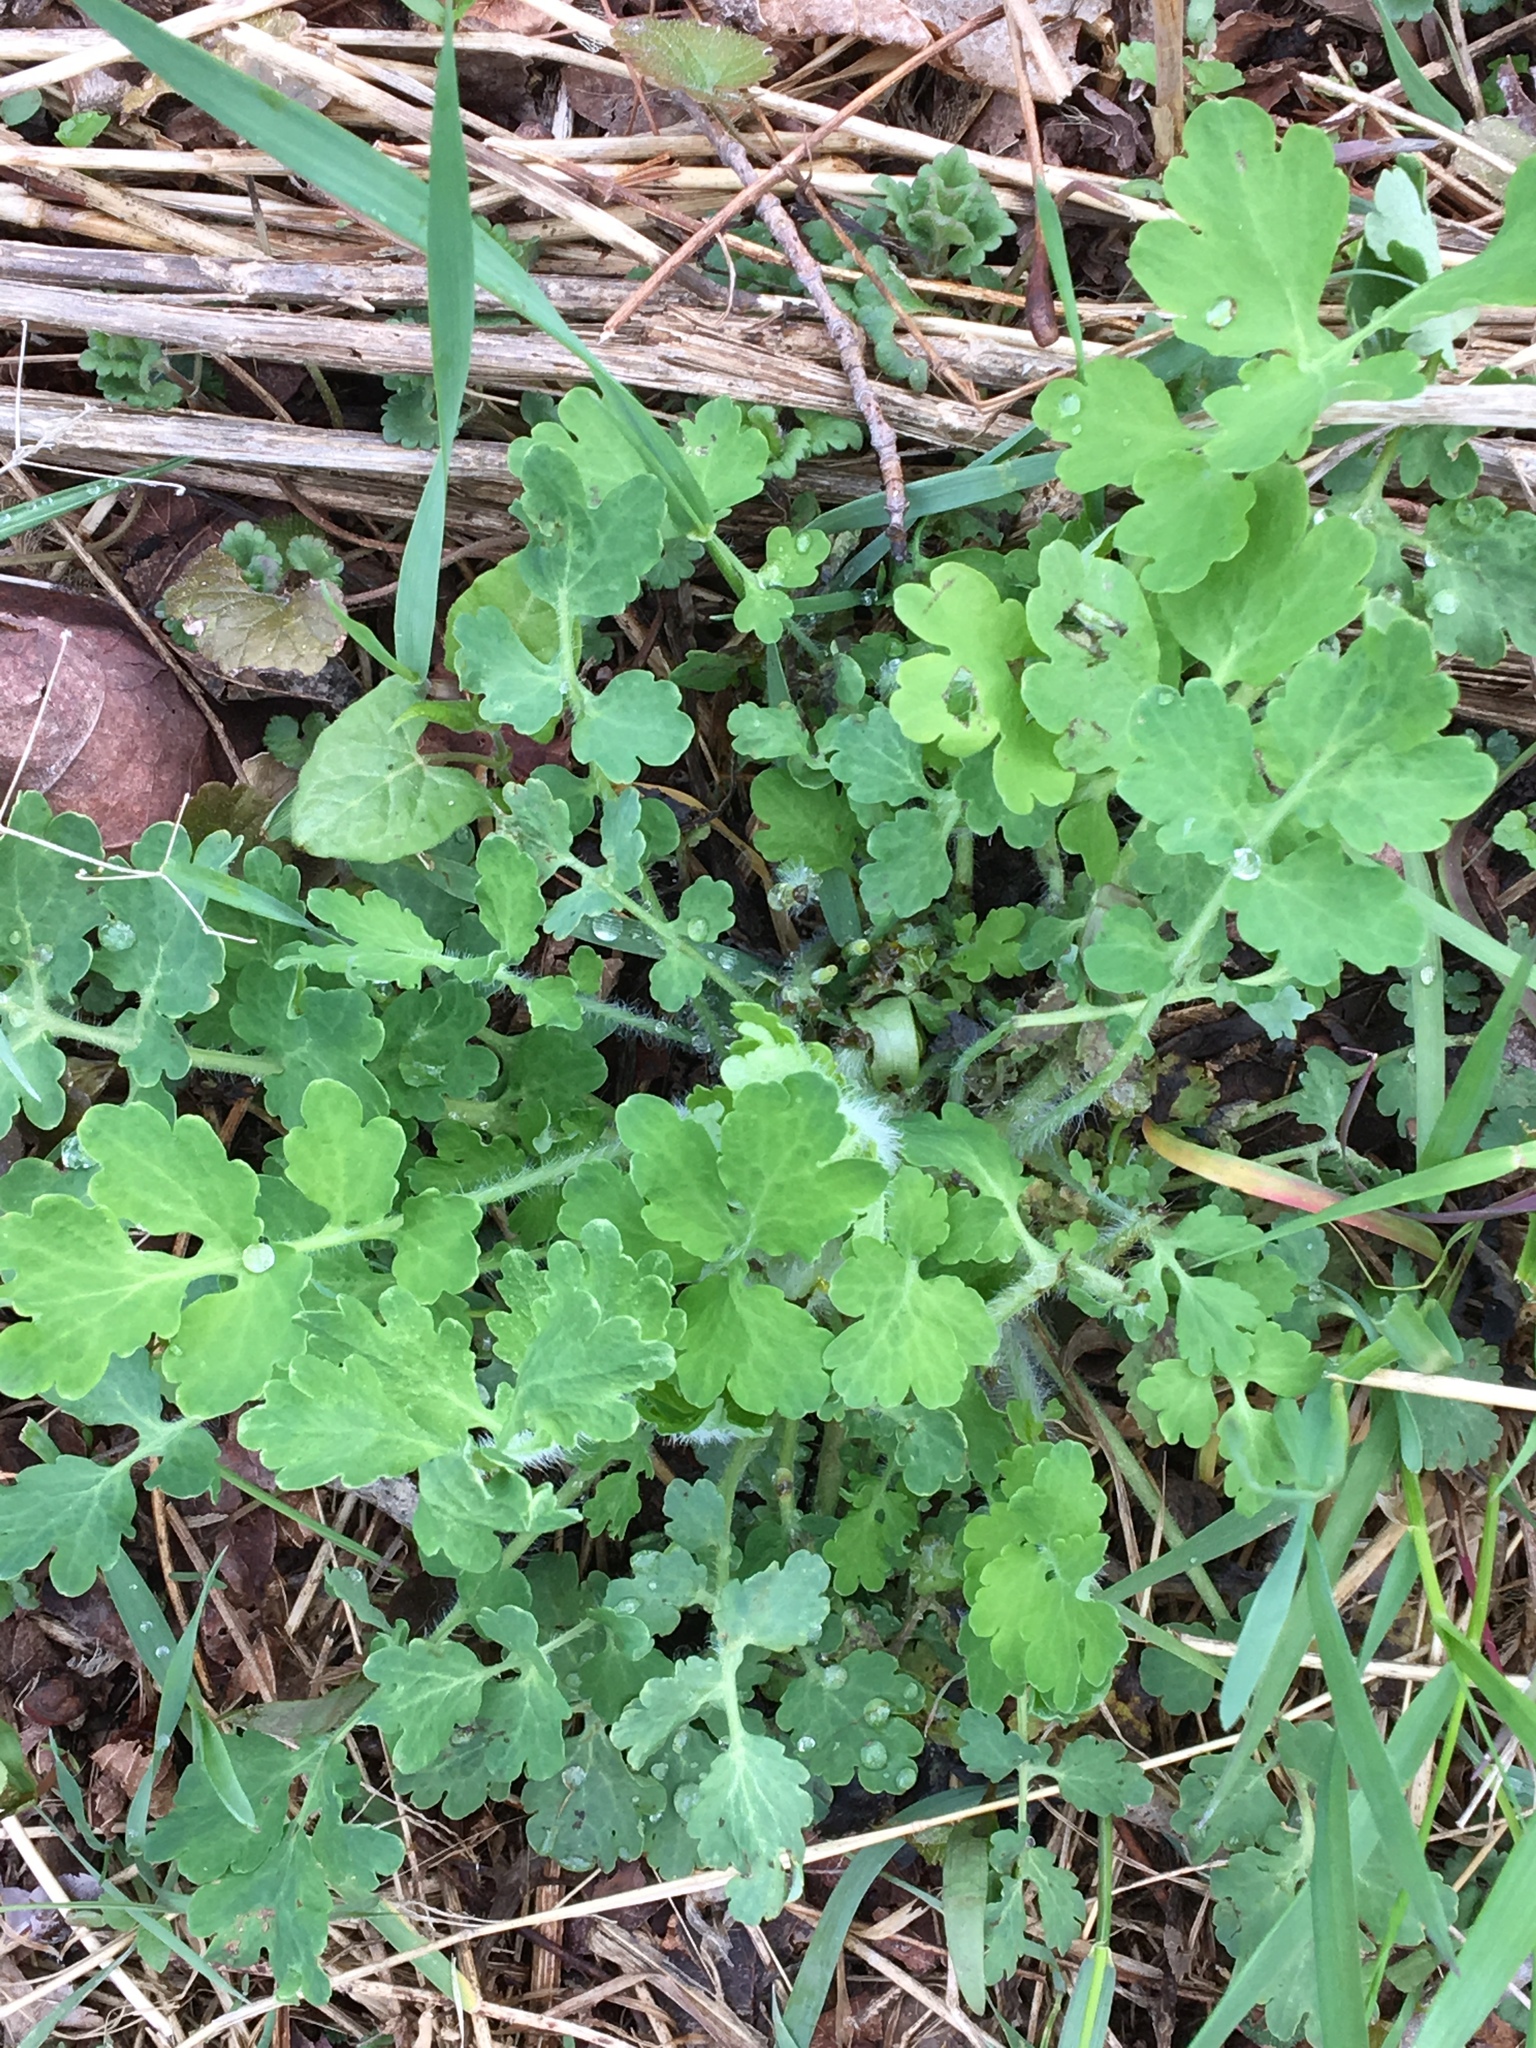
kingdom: Plantae
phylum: Tracheophyta
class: Magnoliopsida
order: Ranunculales
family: Papaveraceae
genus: Chelidonium
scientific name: Chelidonium majus
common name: Greater celandine
